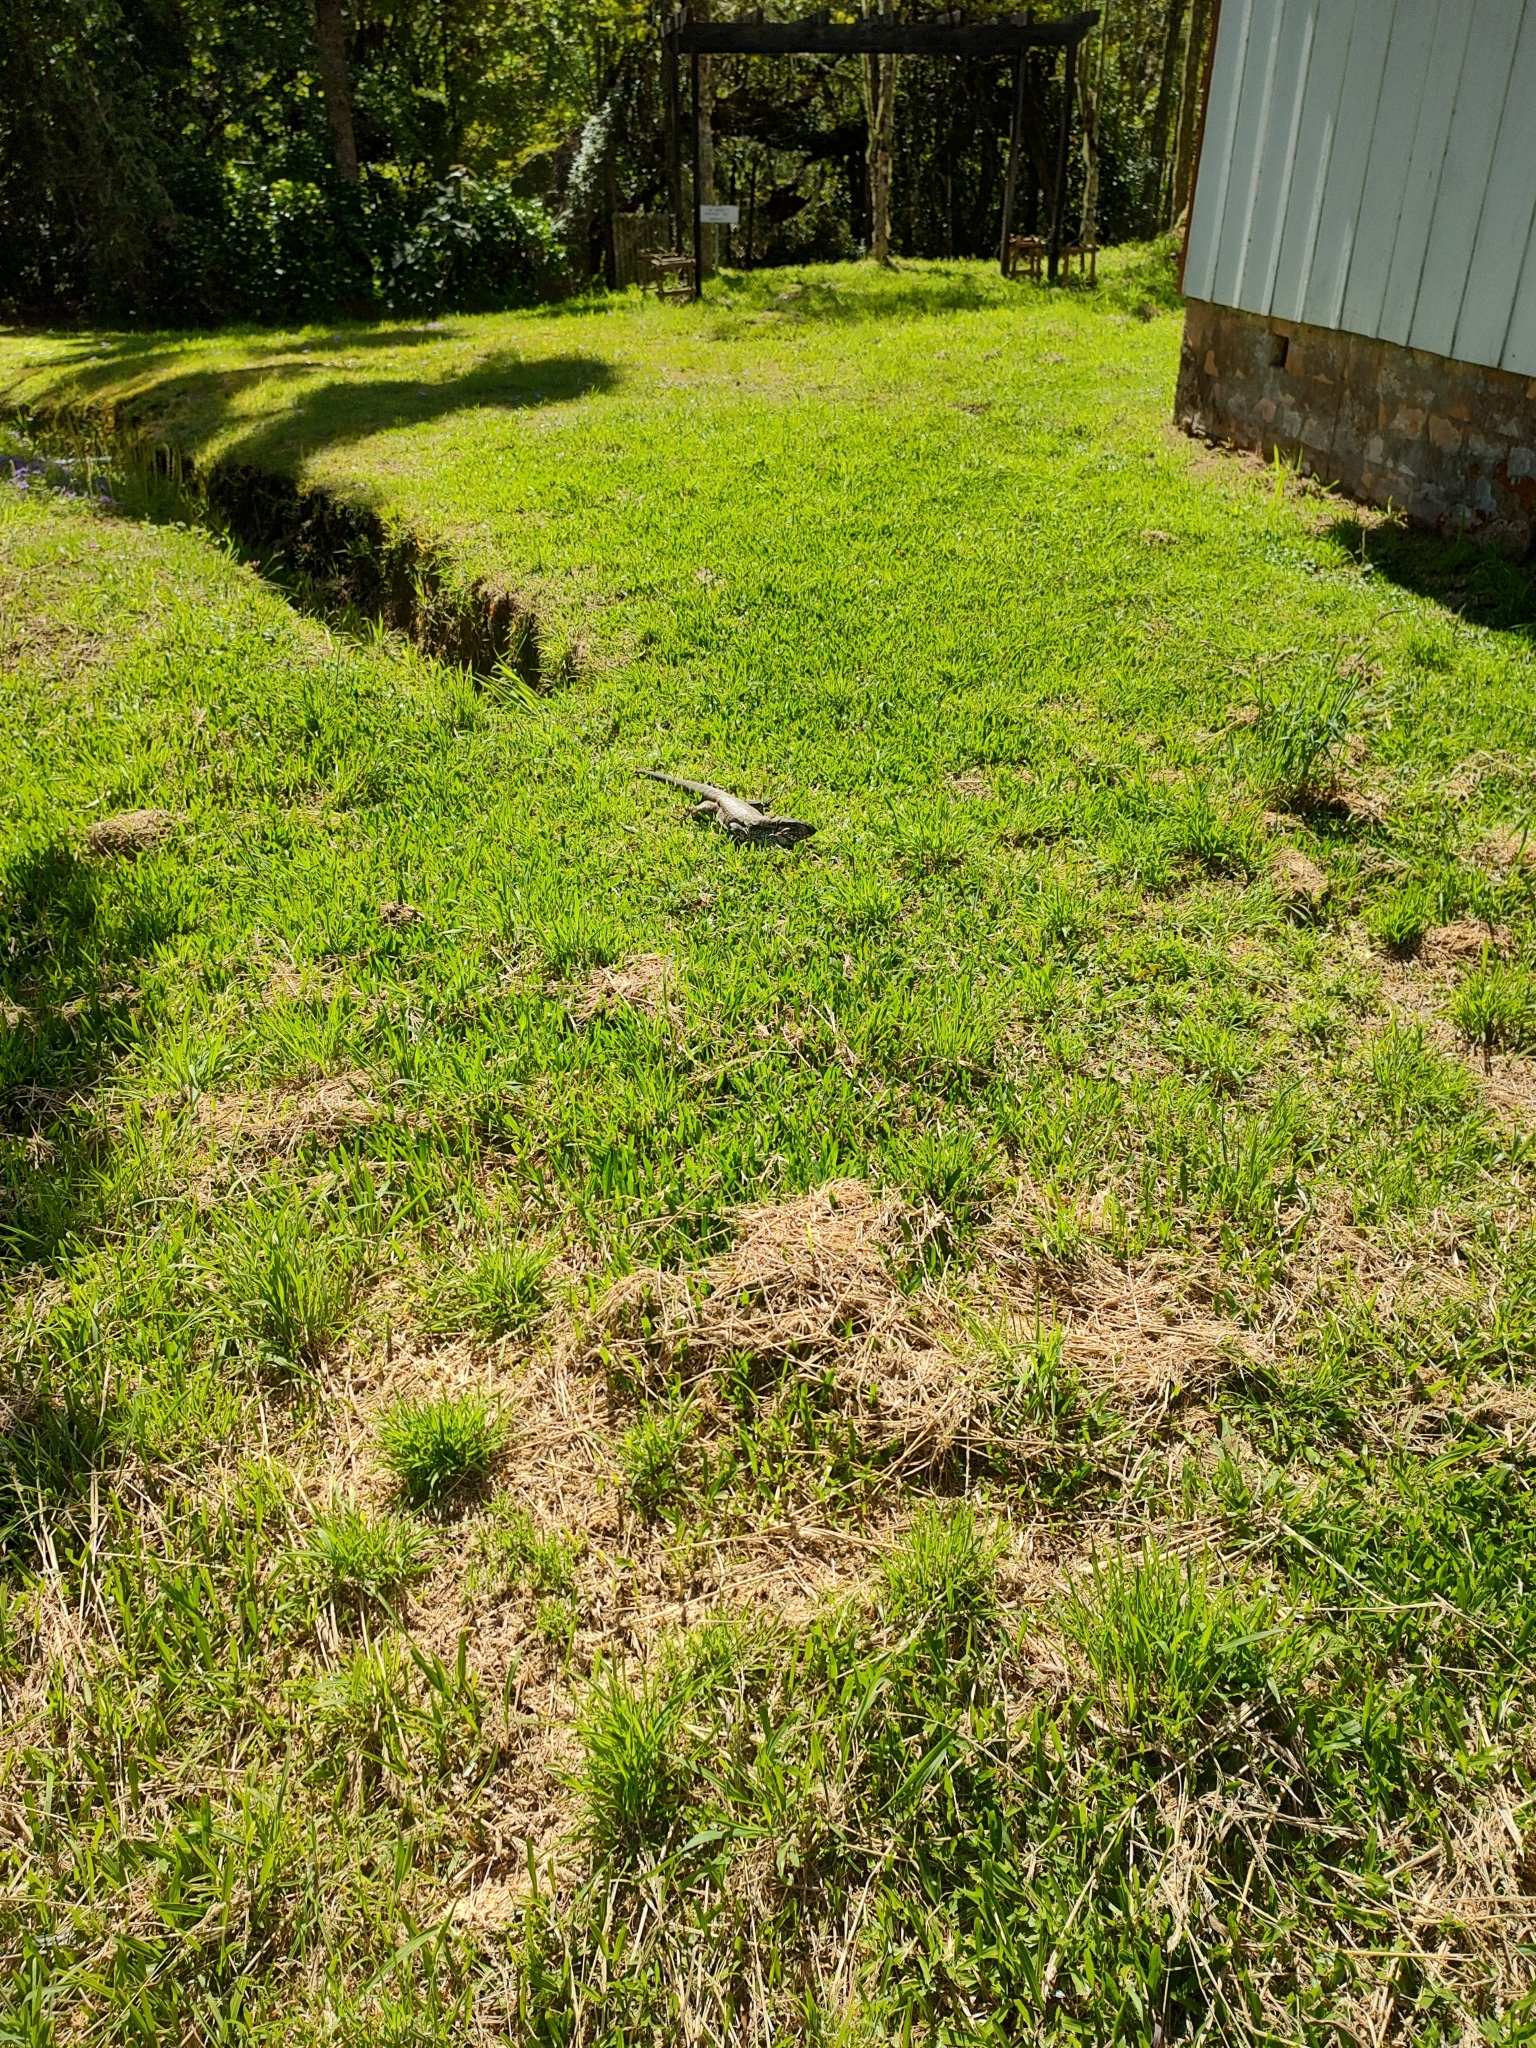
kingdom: Animalia
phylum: Chordata
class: Squamata
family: Teiidae
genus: Salvator
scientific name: Salvator merianae
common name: Argentine black and white tegu
